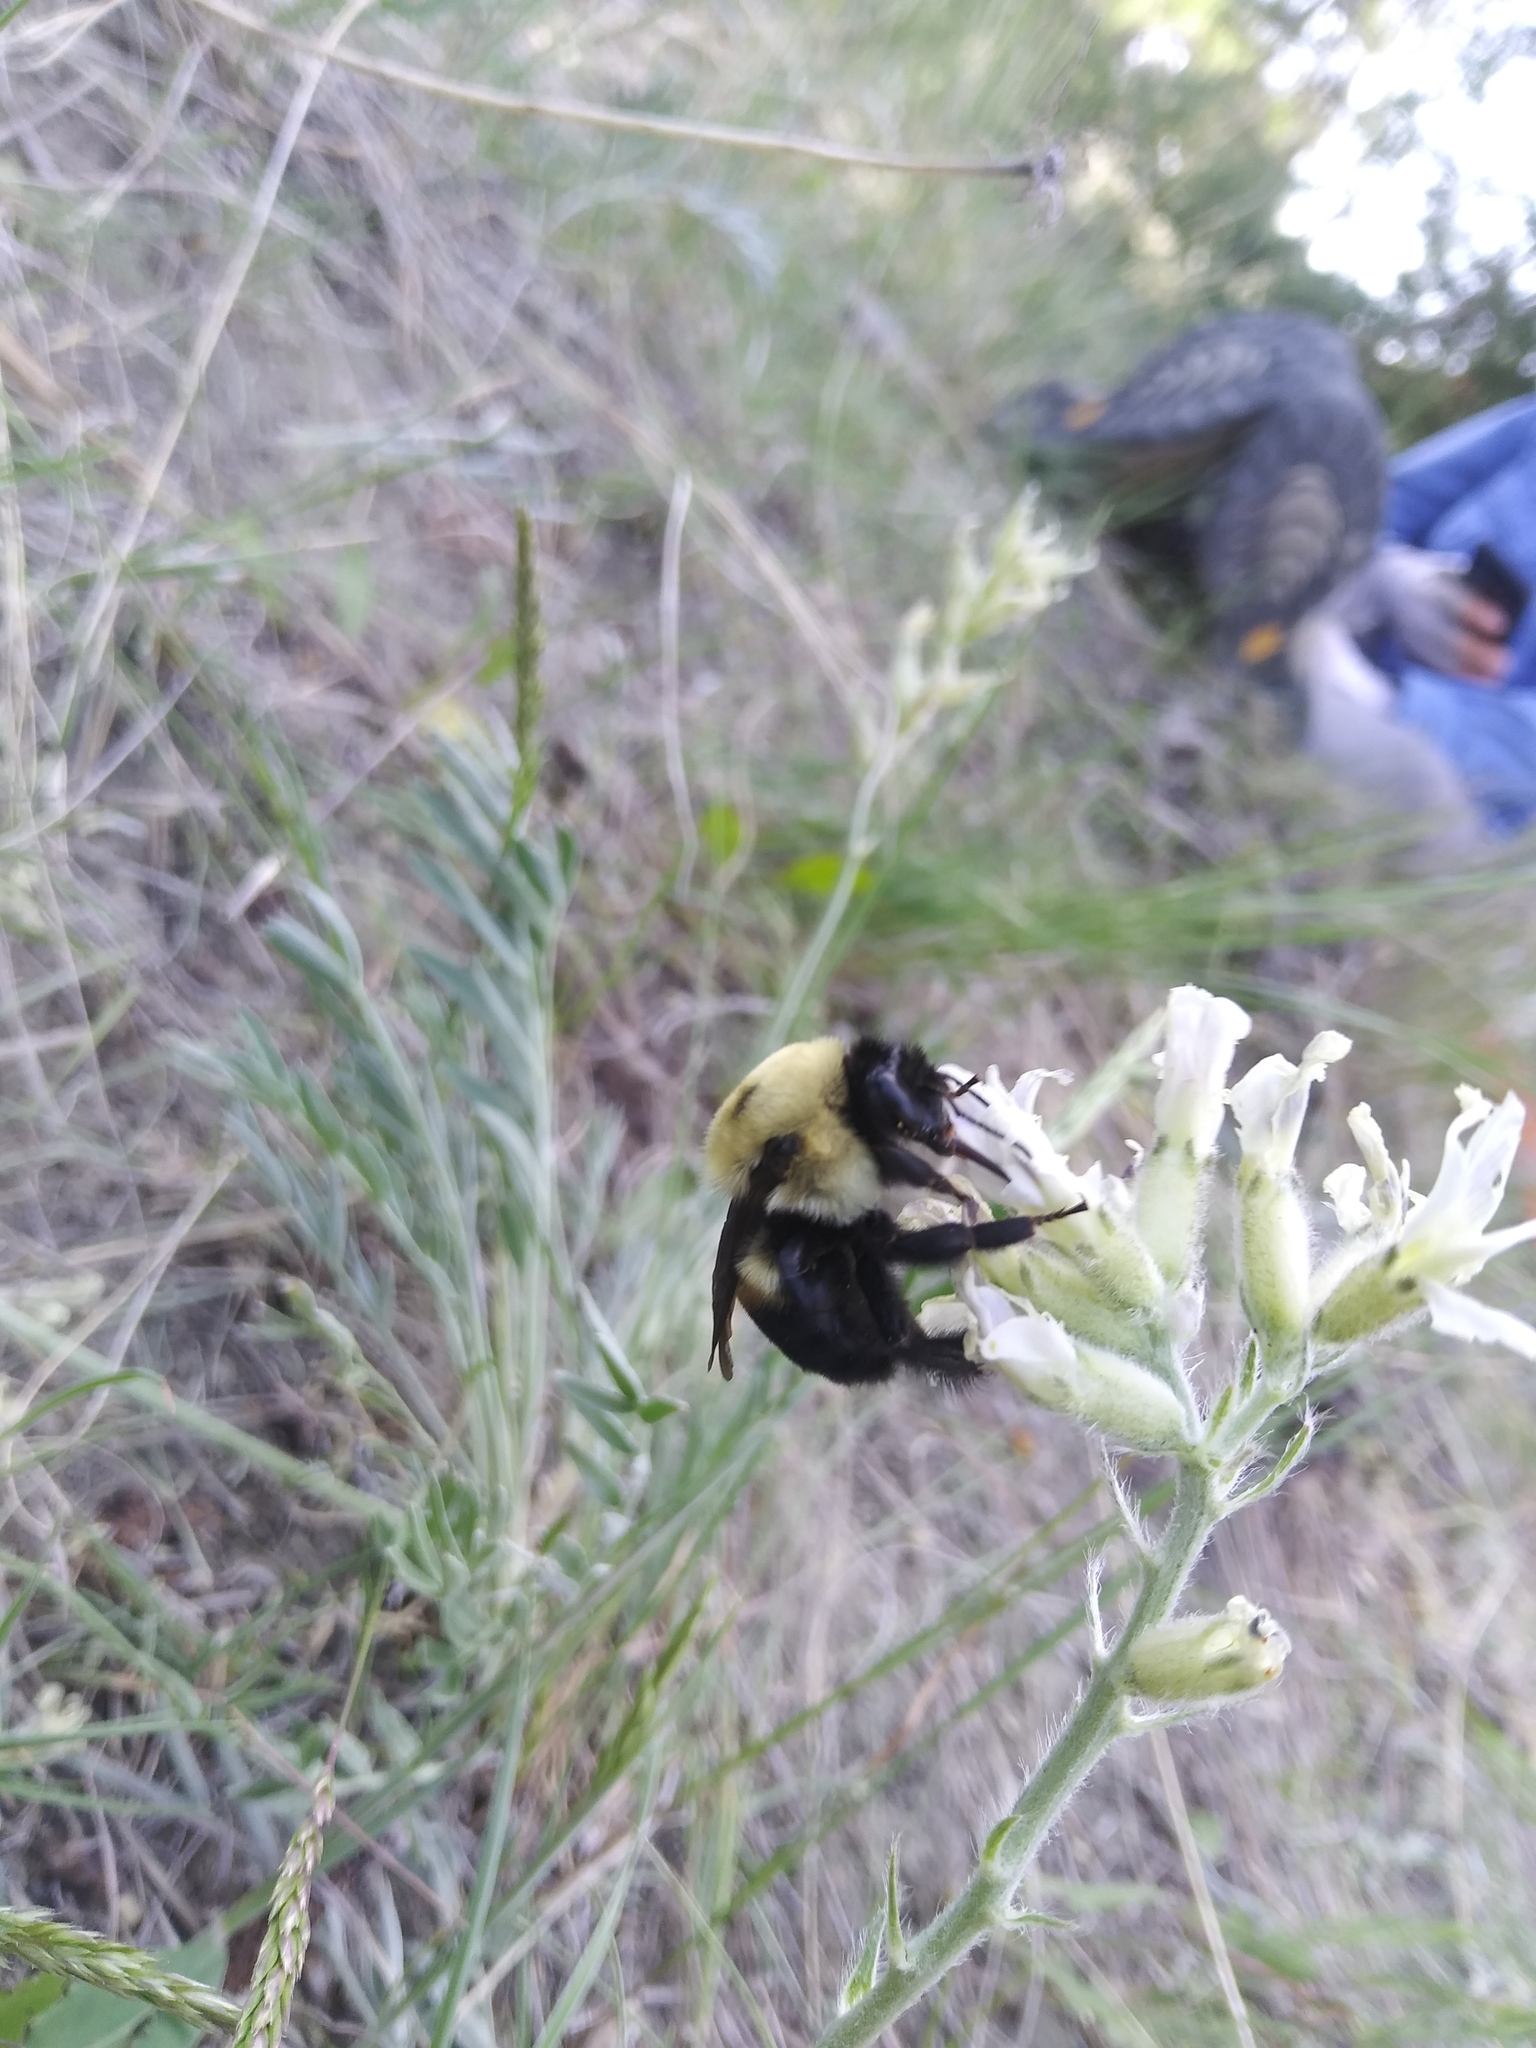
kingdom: Animalia
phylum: Arthropoda
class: Insecta
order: Hymenoptera
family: Apidae
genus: Bombus
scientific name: Bombus griseocollis
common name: Brown-belted bumble bee
